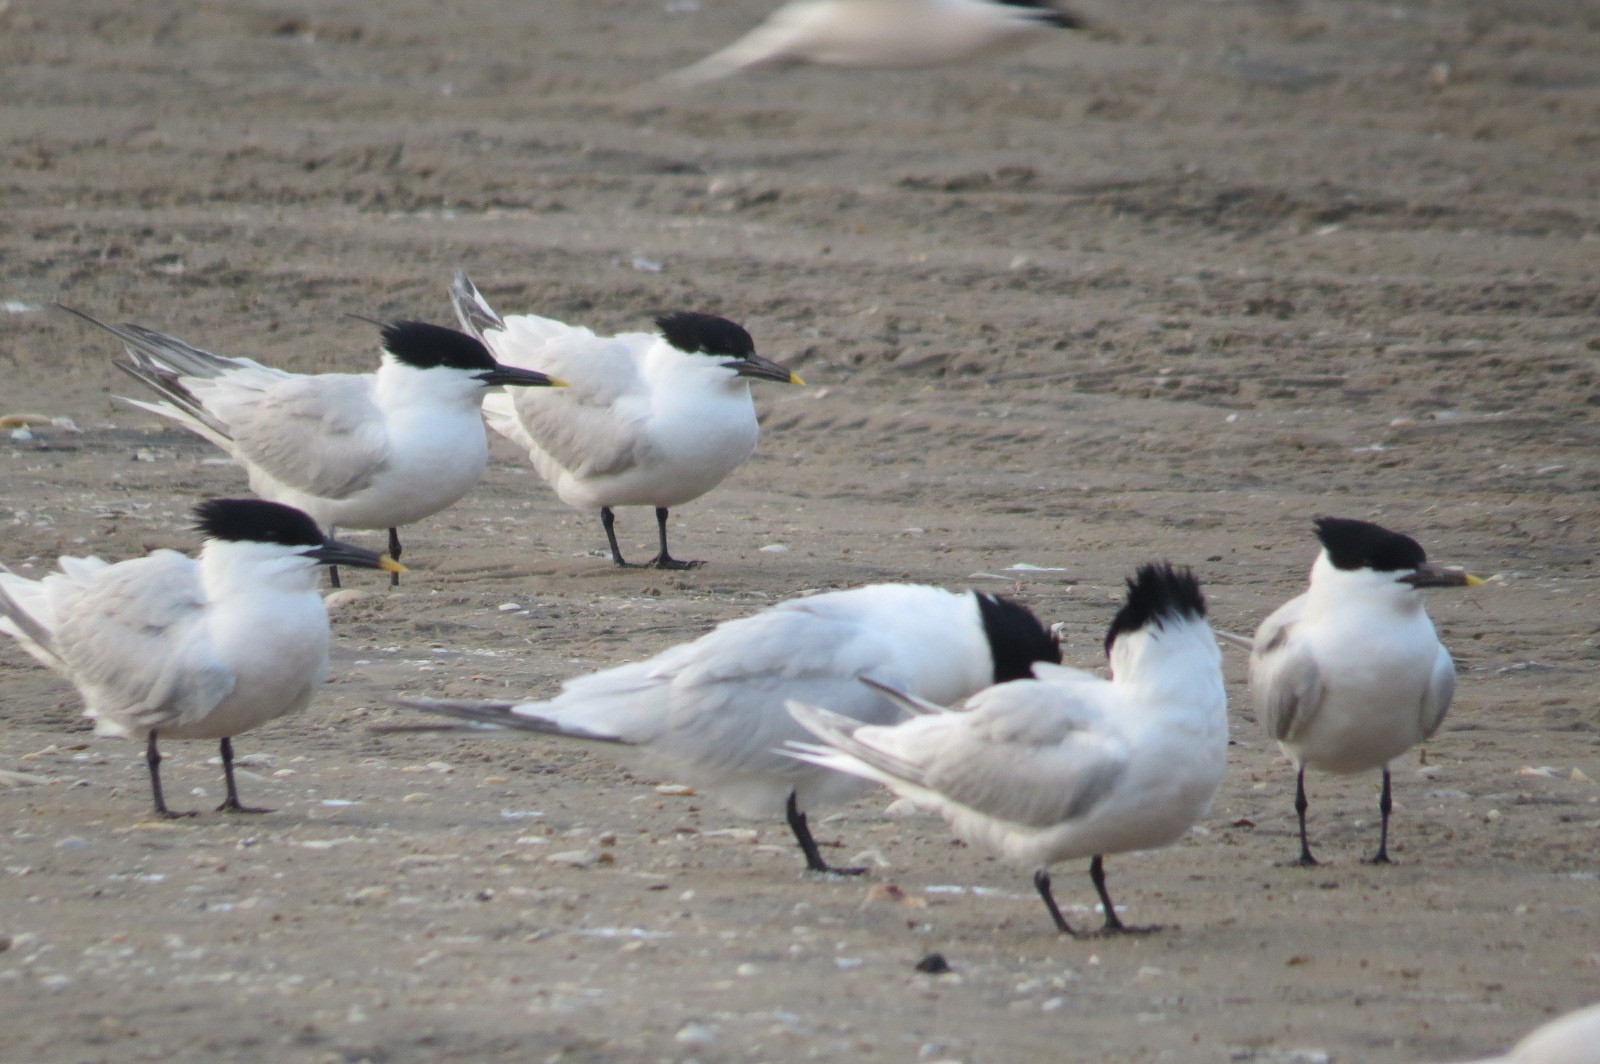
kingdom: Animalia
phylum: Chordata
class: Aves
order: Charadriiformes
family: Laridae
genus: Thalasseus
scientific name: Thalasseus sandvicensis
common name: Sandwich tern
